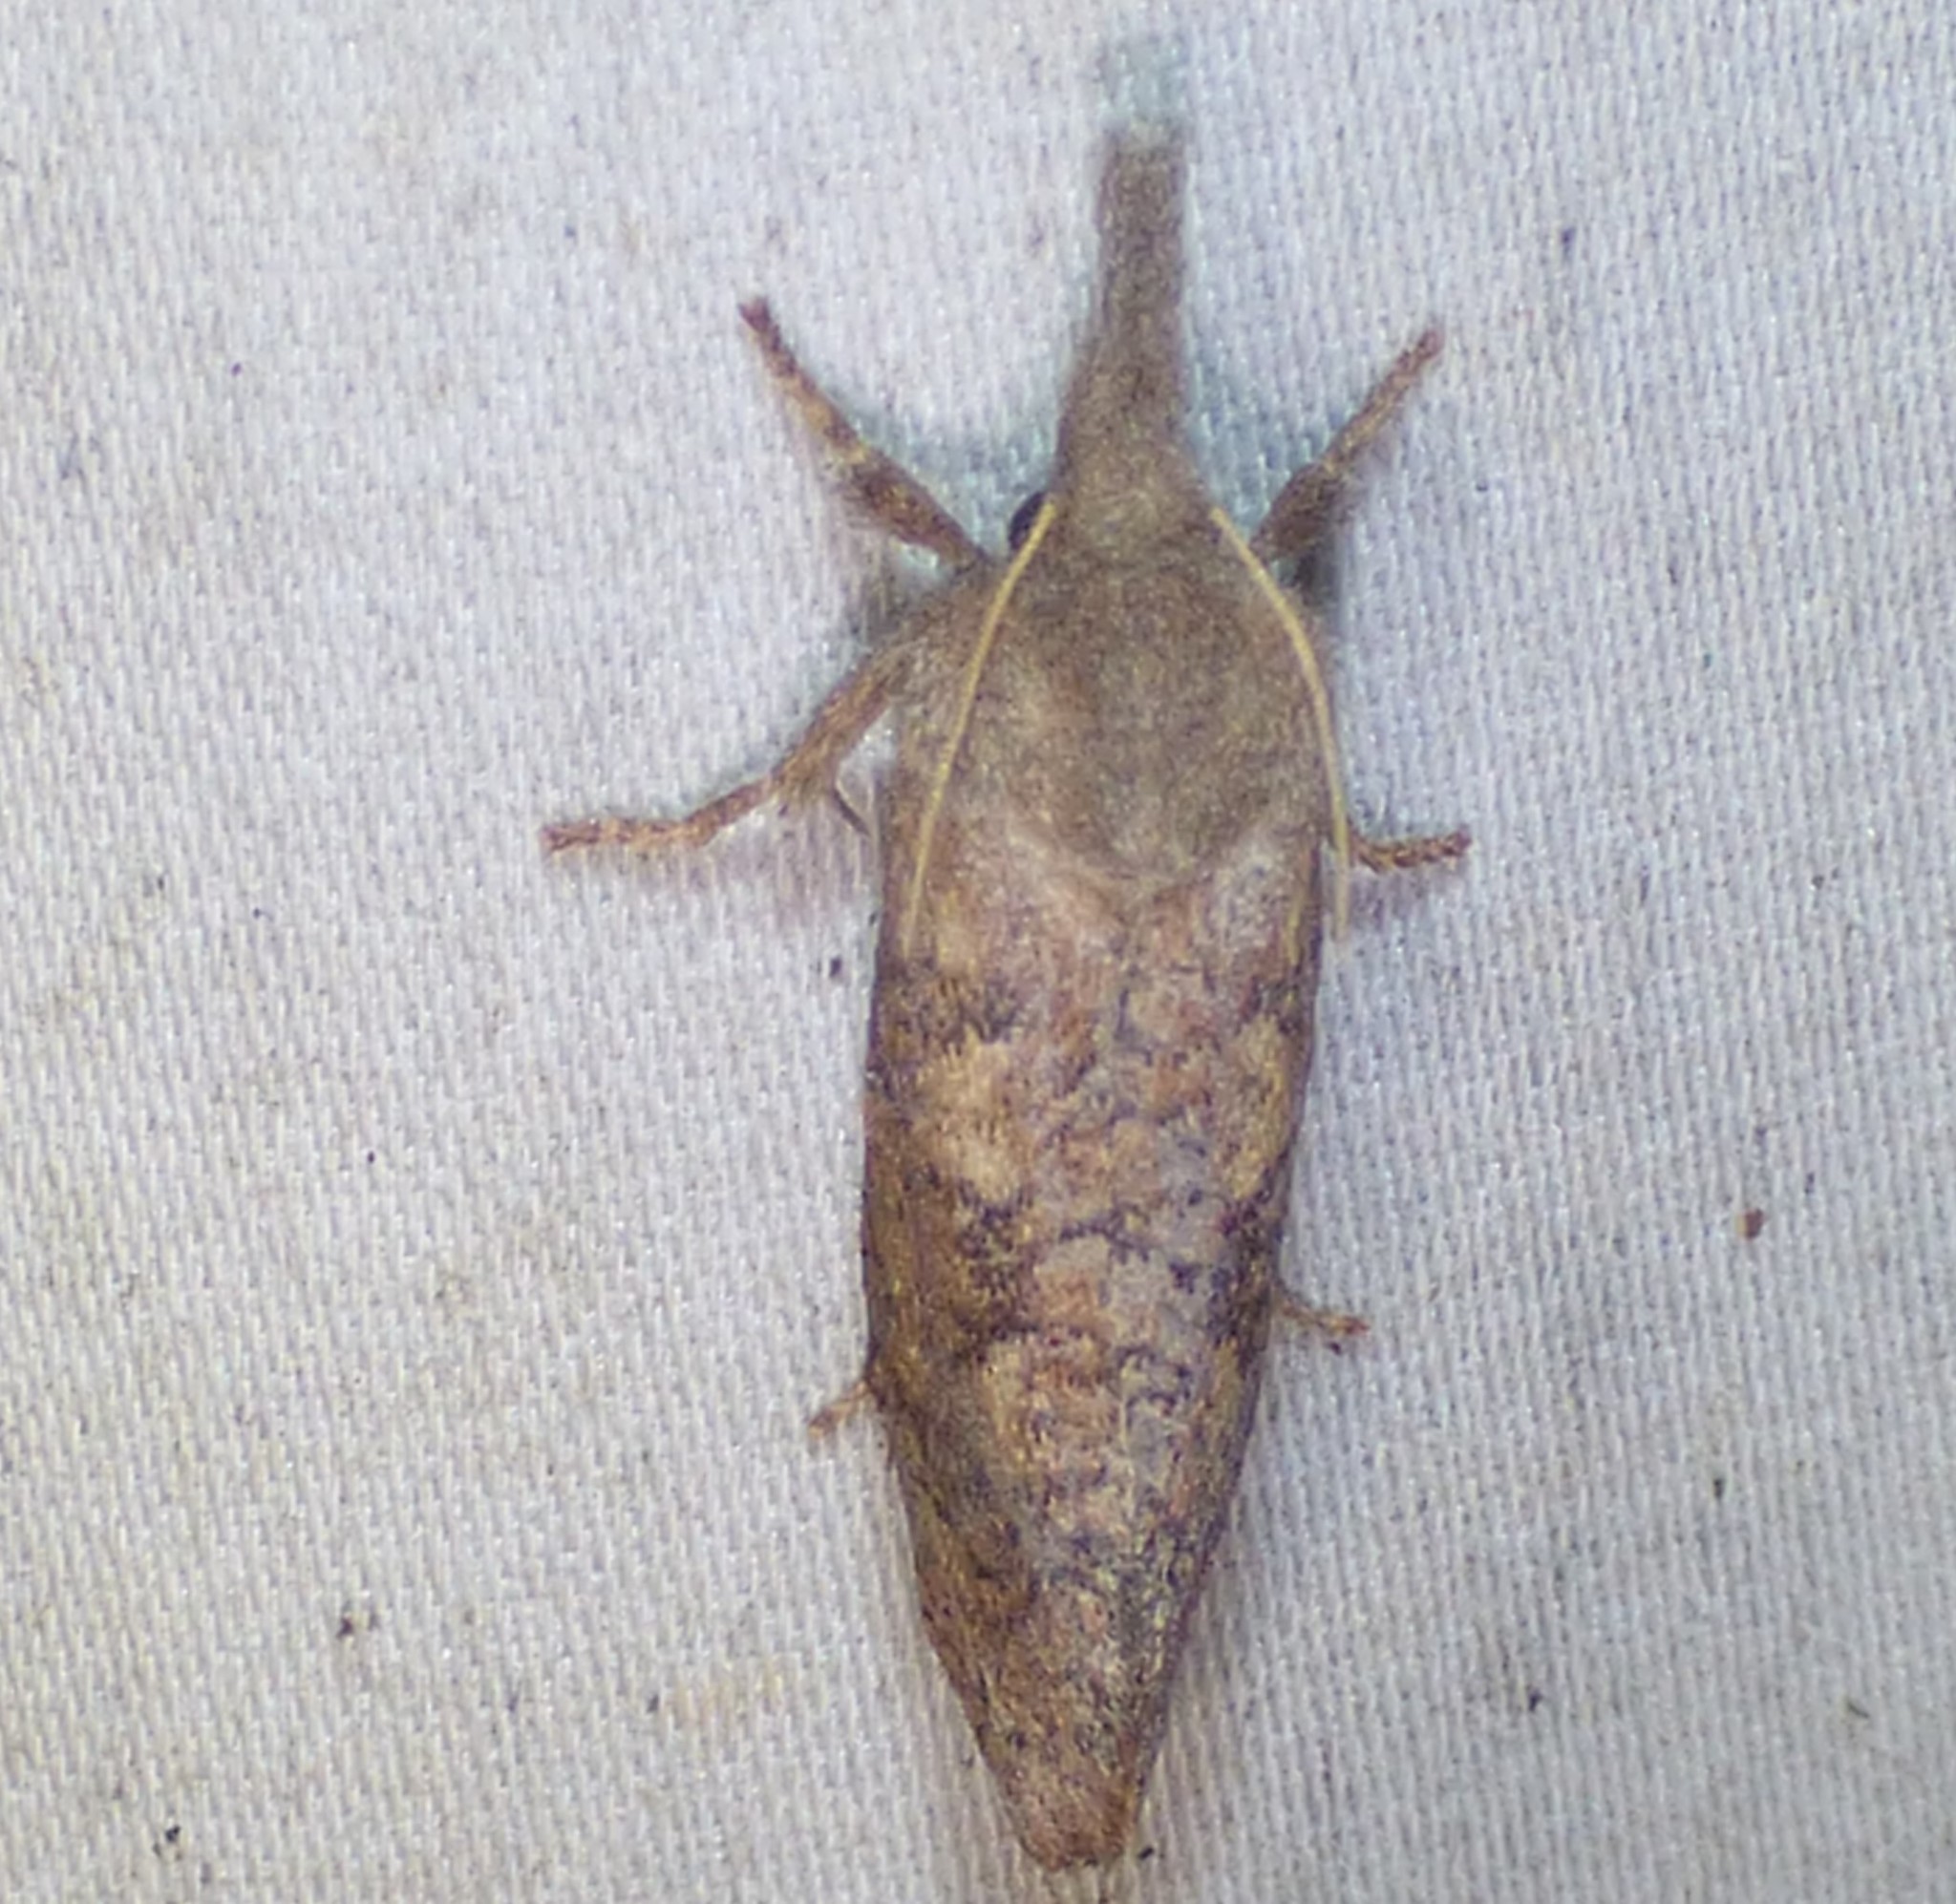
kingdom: Animalia
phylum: Arthropoda
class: Insecta
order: Lepidoptera
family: Tineidae
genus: Acrolophus
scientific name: Acrolophus plumifrontella
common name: Eastern grass tubeworm moth
